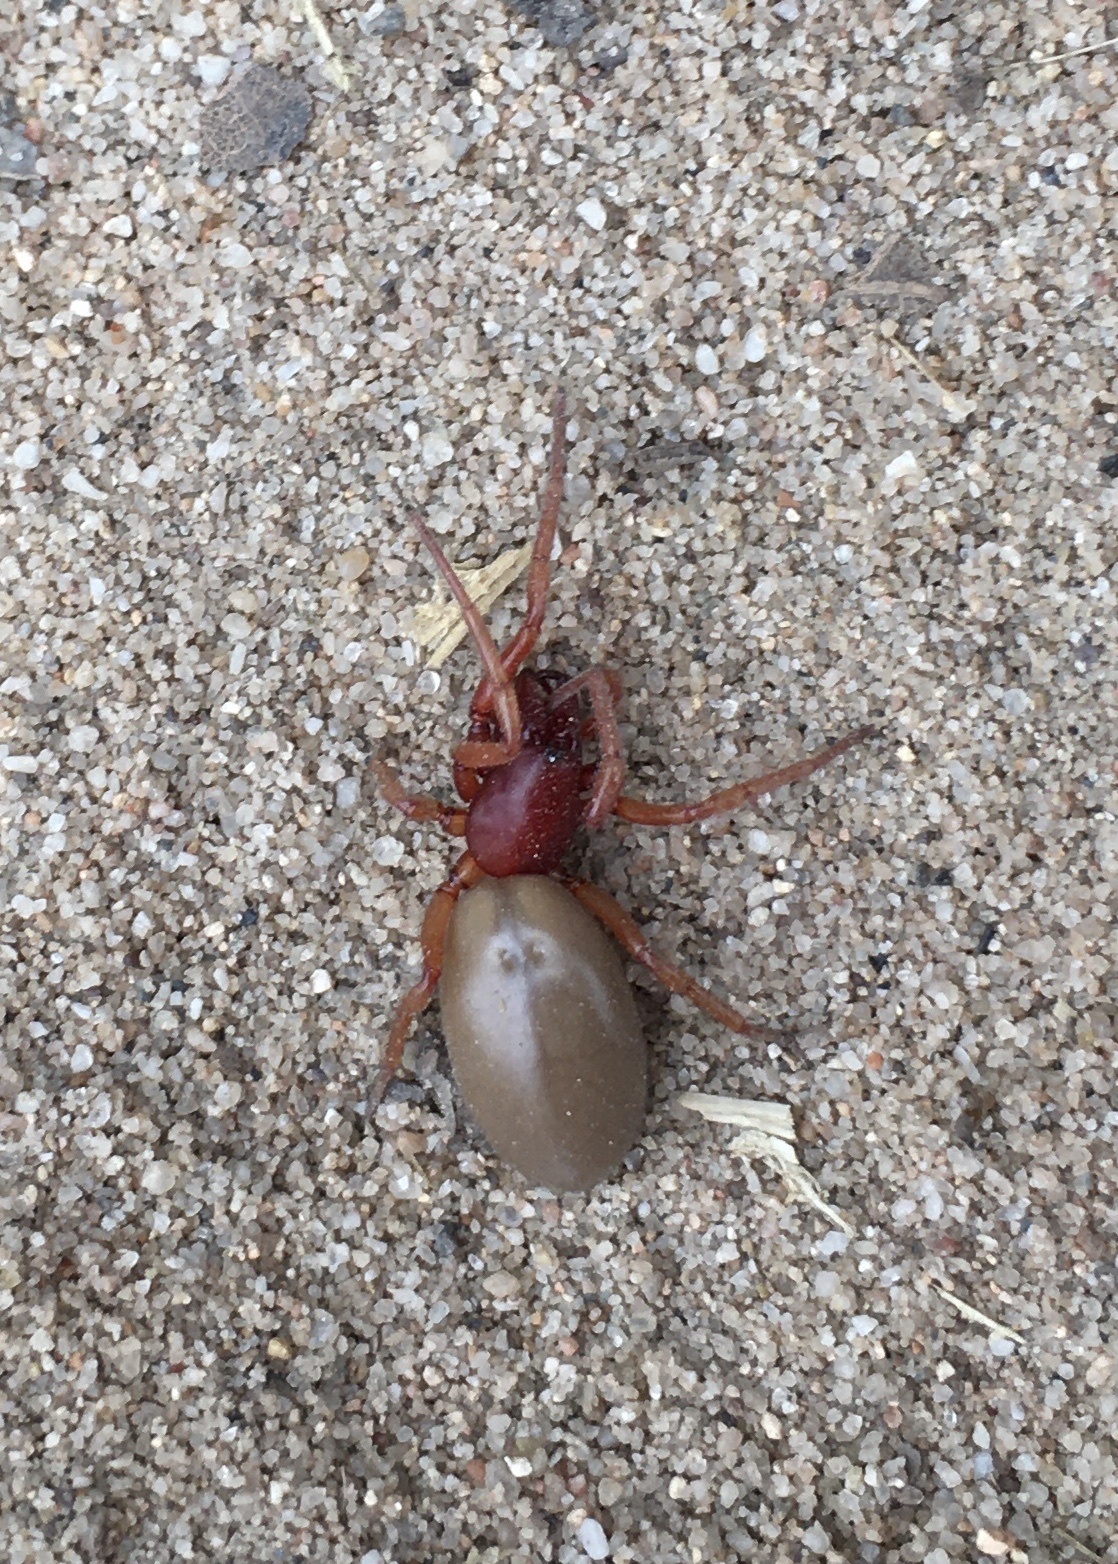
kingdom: Animalia
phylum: Arthropoda
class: Arachnida
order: Araneae
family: Dysderidae
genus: Dysdera
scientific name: Dysdera crocata
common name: Woodlouse spider
